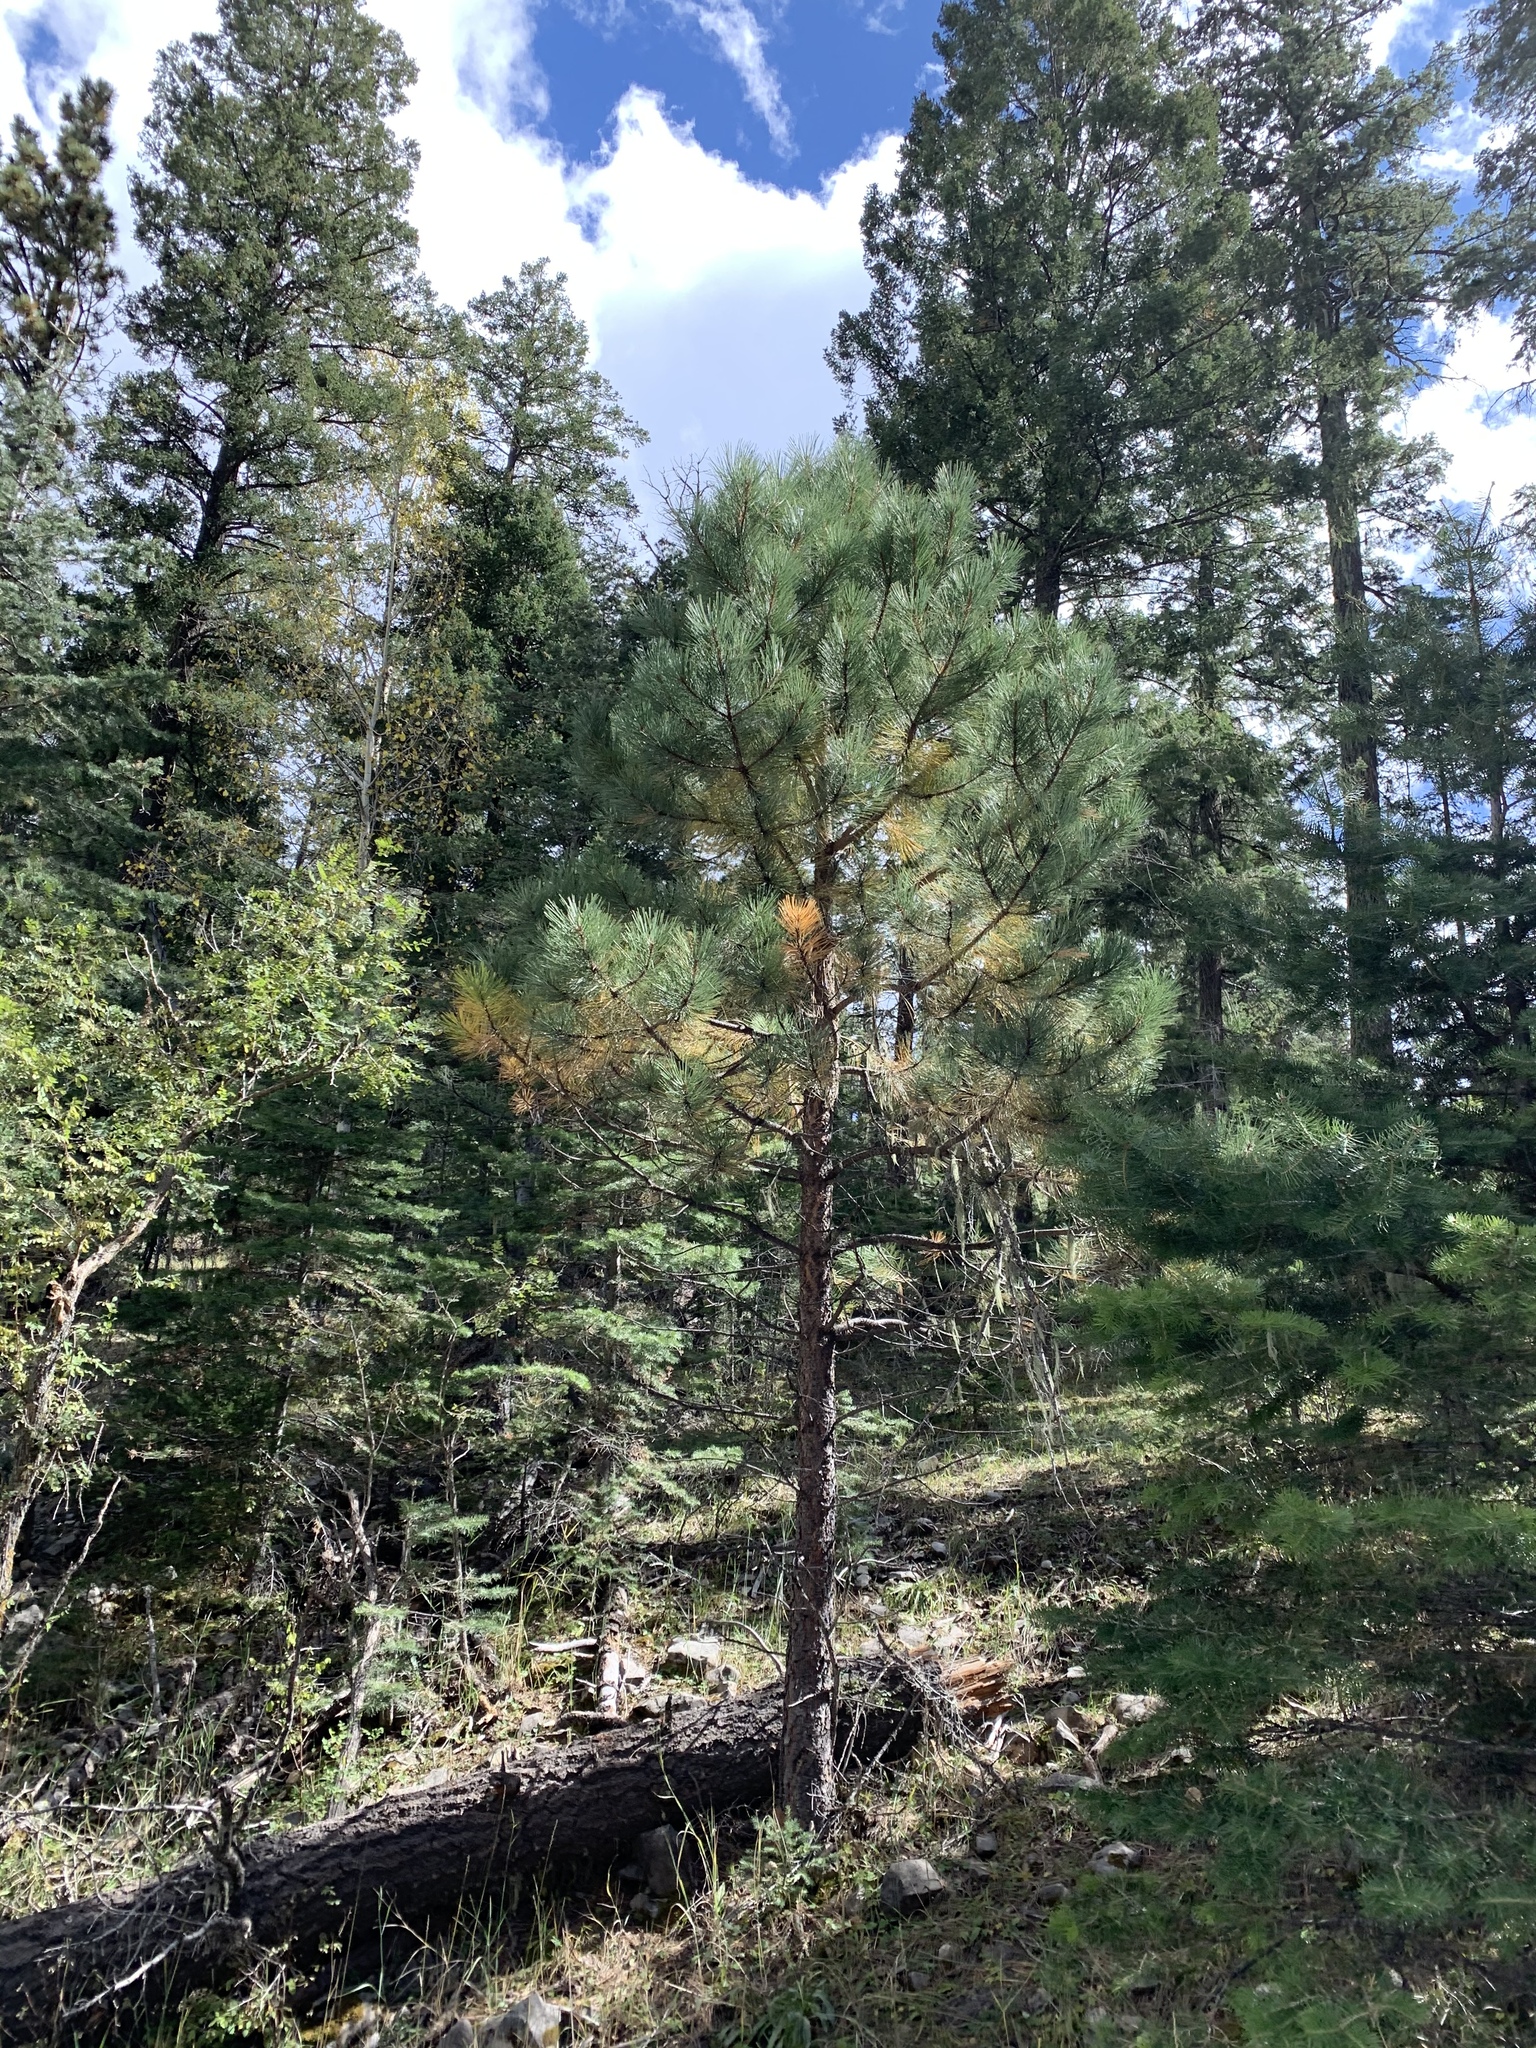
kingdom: Plantae
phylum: Tracheophyta
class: Pinopsida
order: Pinales
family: Pinaceae
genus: Pinus
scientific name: Pinus ponderosa
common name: Western yellow-pine
